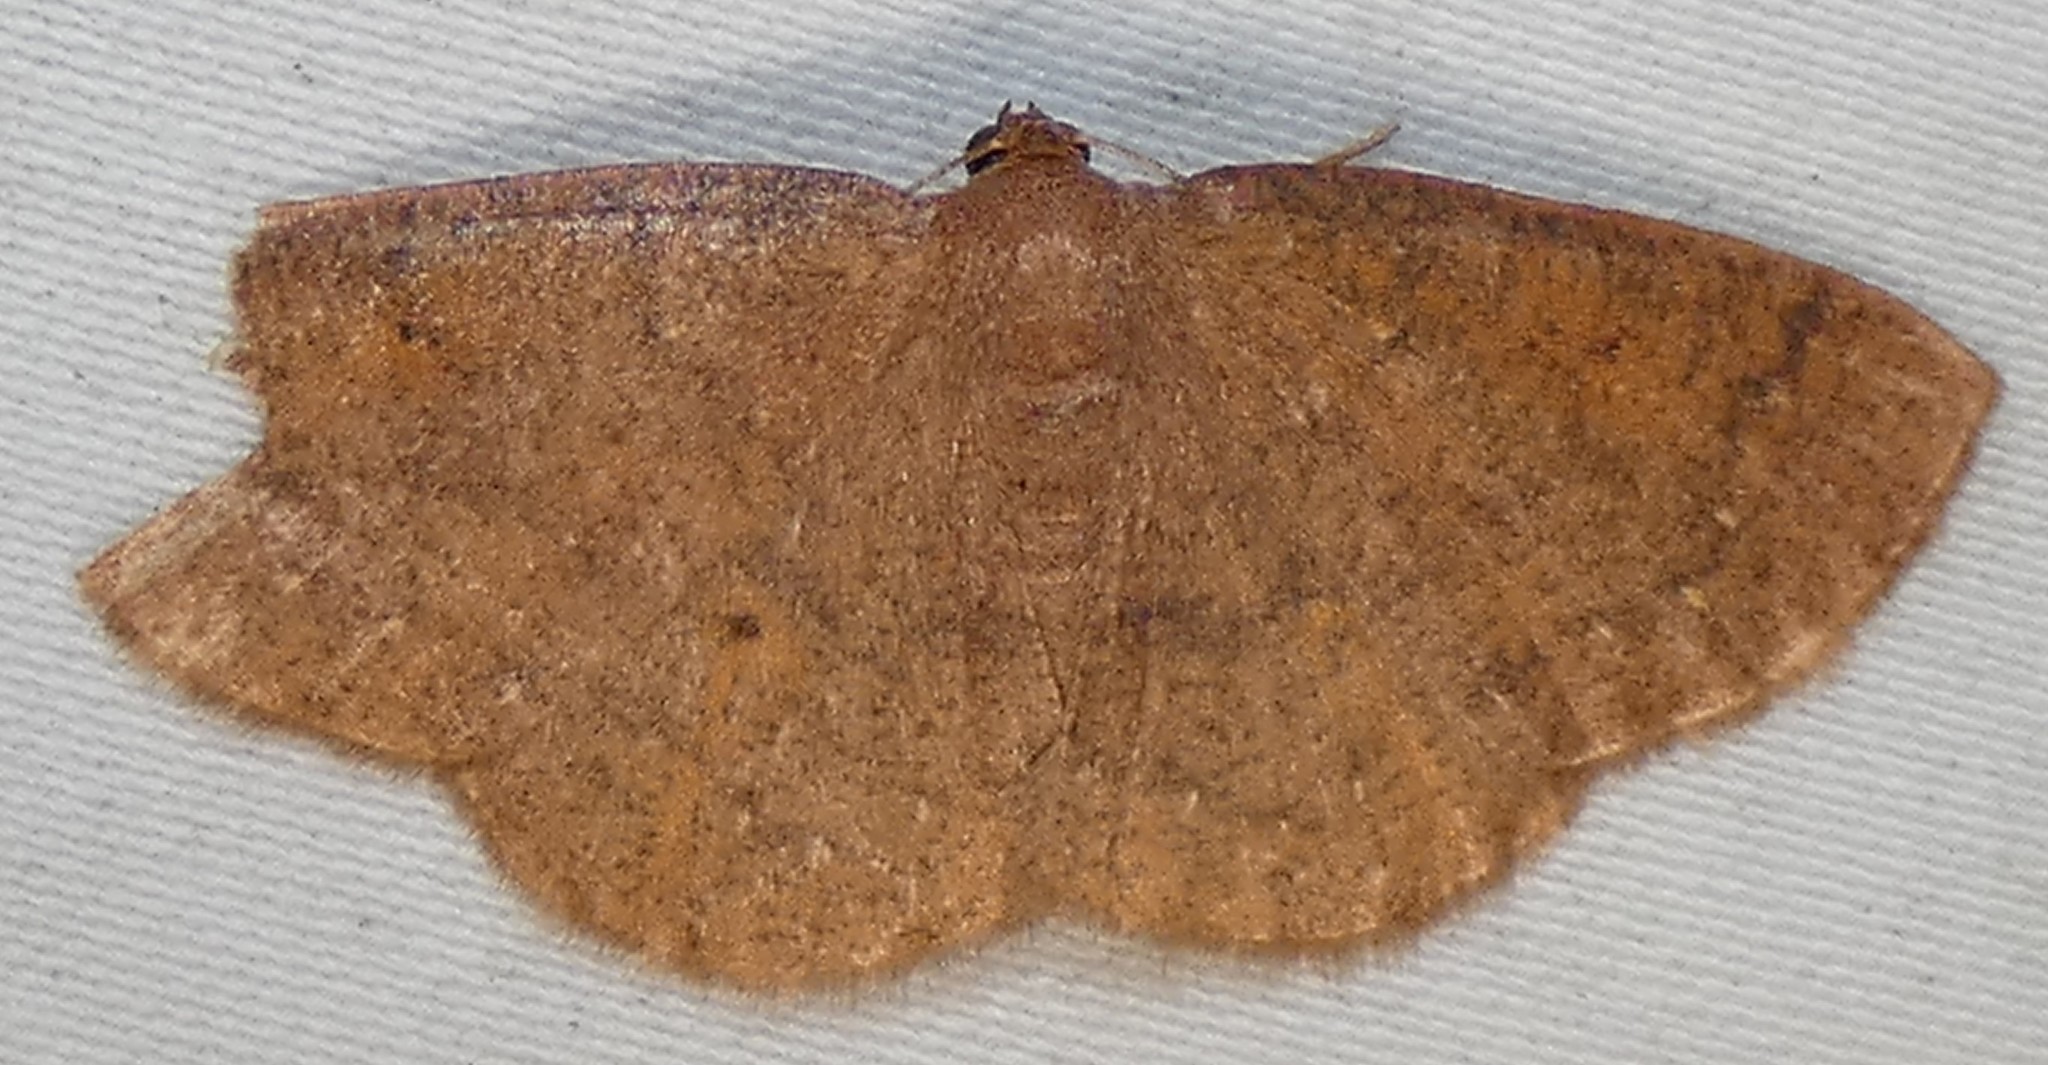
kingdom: Animalia
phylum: Arthropoda
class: Insecta
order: Lepidoptera
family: Geometridae
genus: Ilexia
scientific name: Ilexia intractata
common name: Black-dotted ruddy moth
